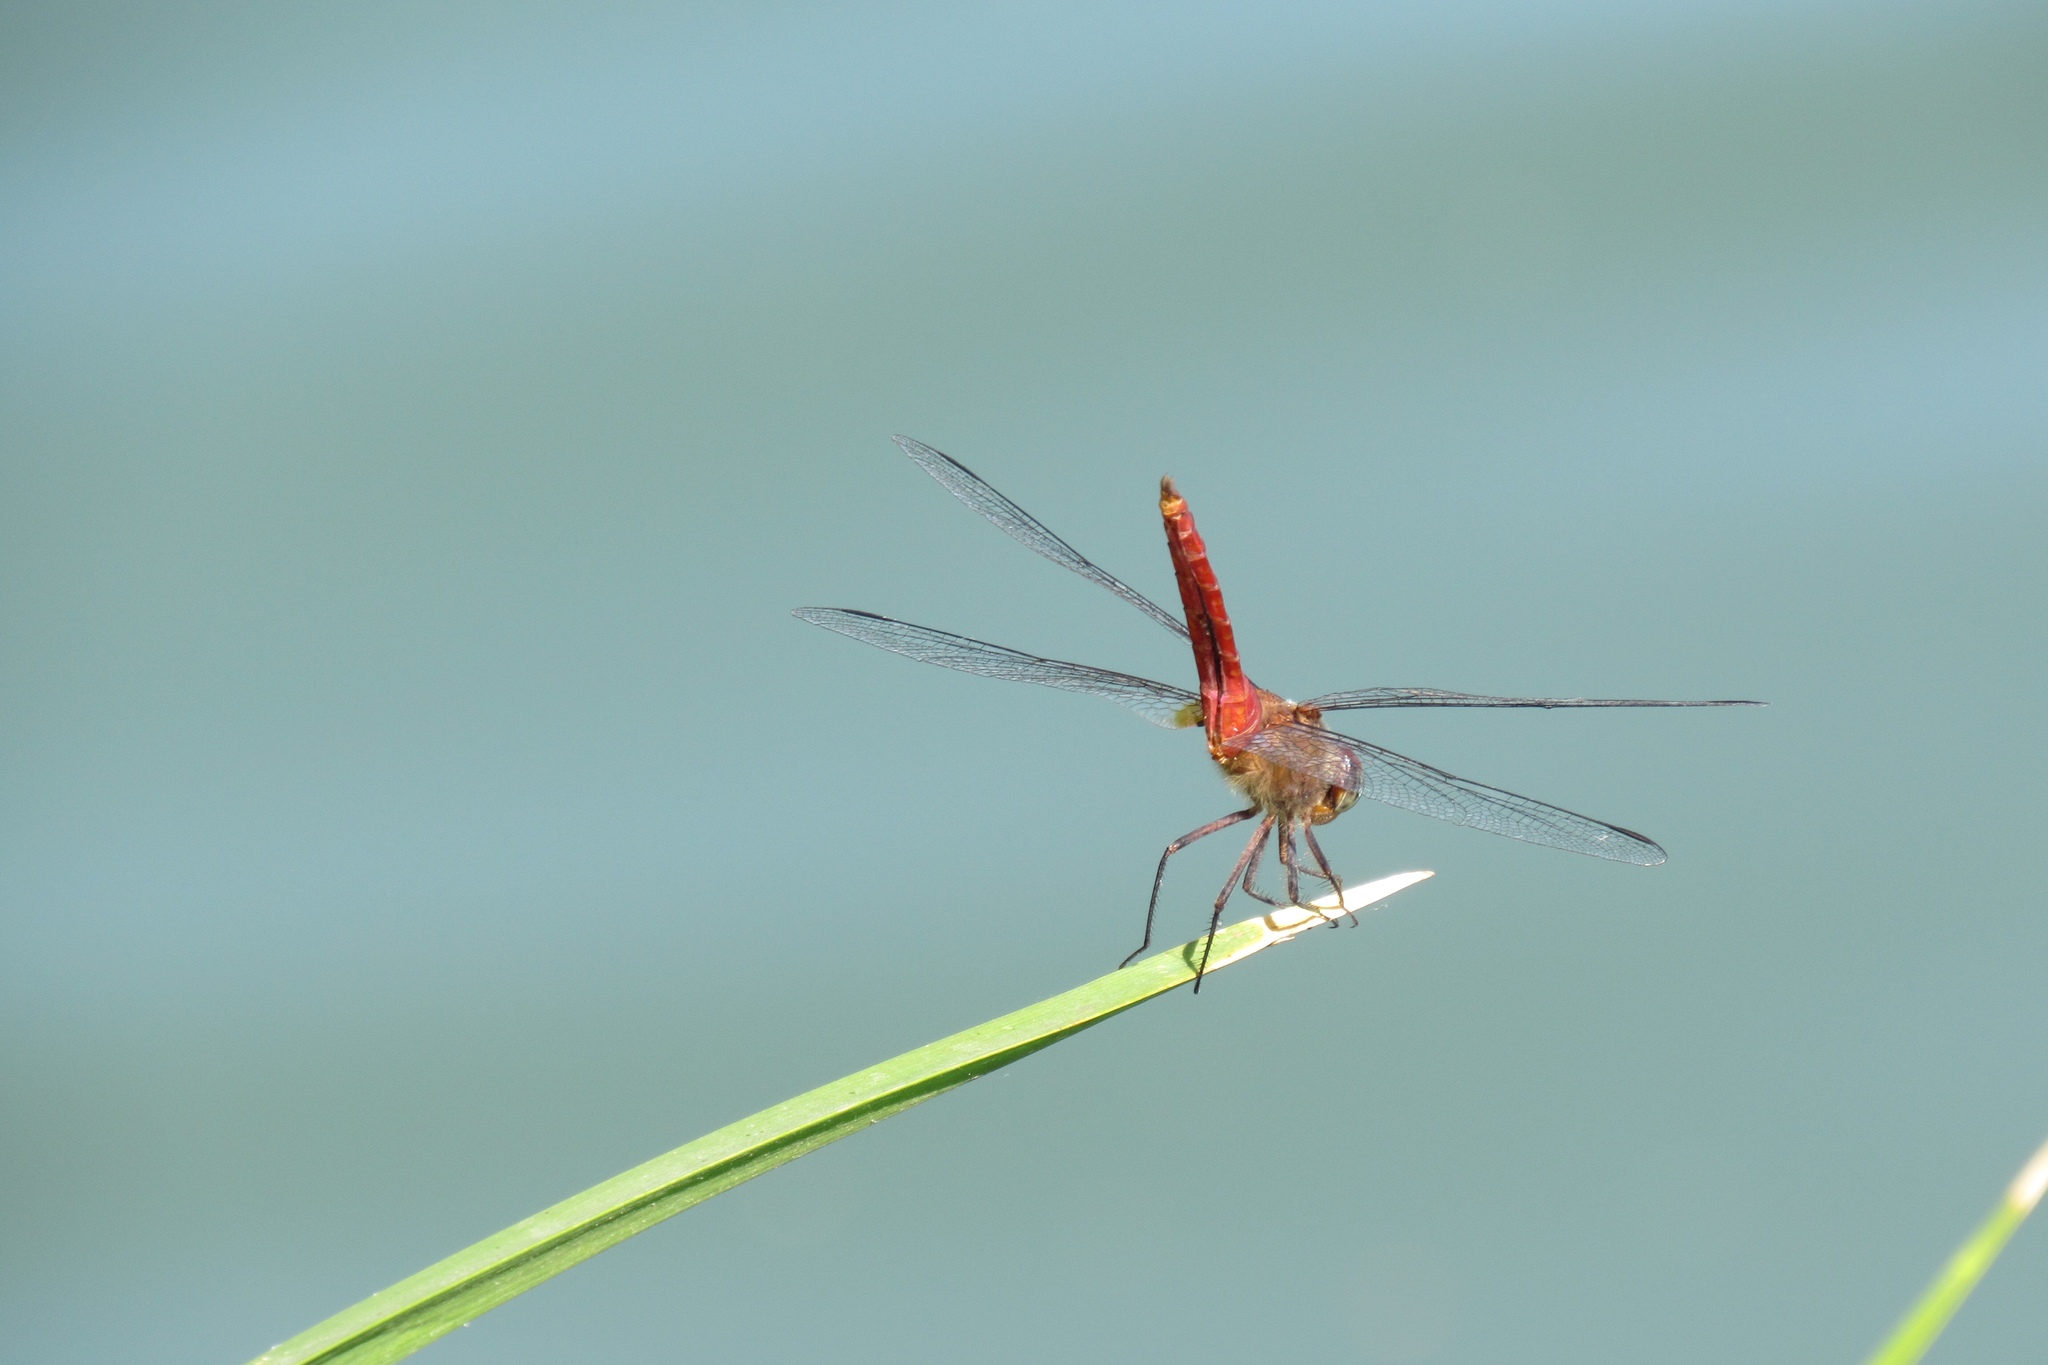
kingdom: Animalia
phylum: Arthropoda
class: Insecta
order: Odonata
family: Libellulidae
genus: Brachymesia
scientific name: Brachymesia furcata
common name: Red-taled pennant
